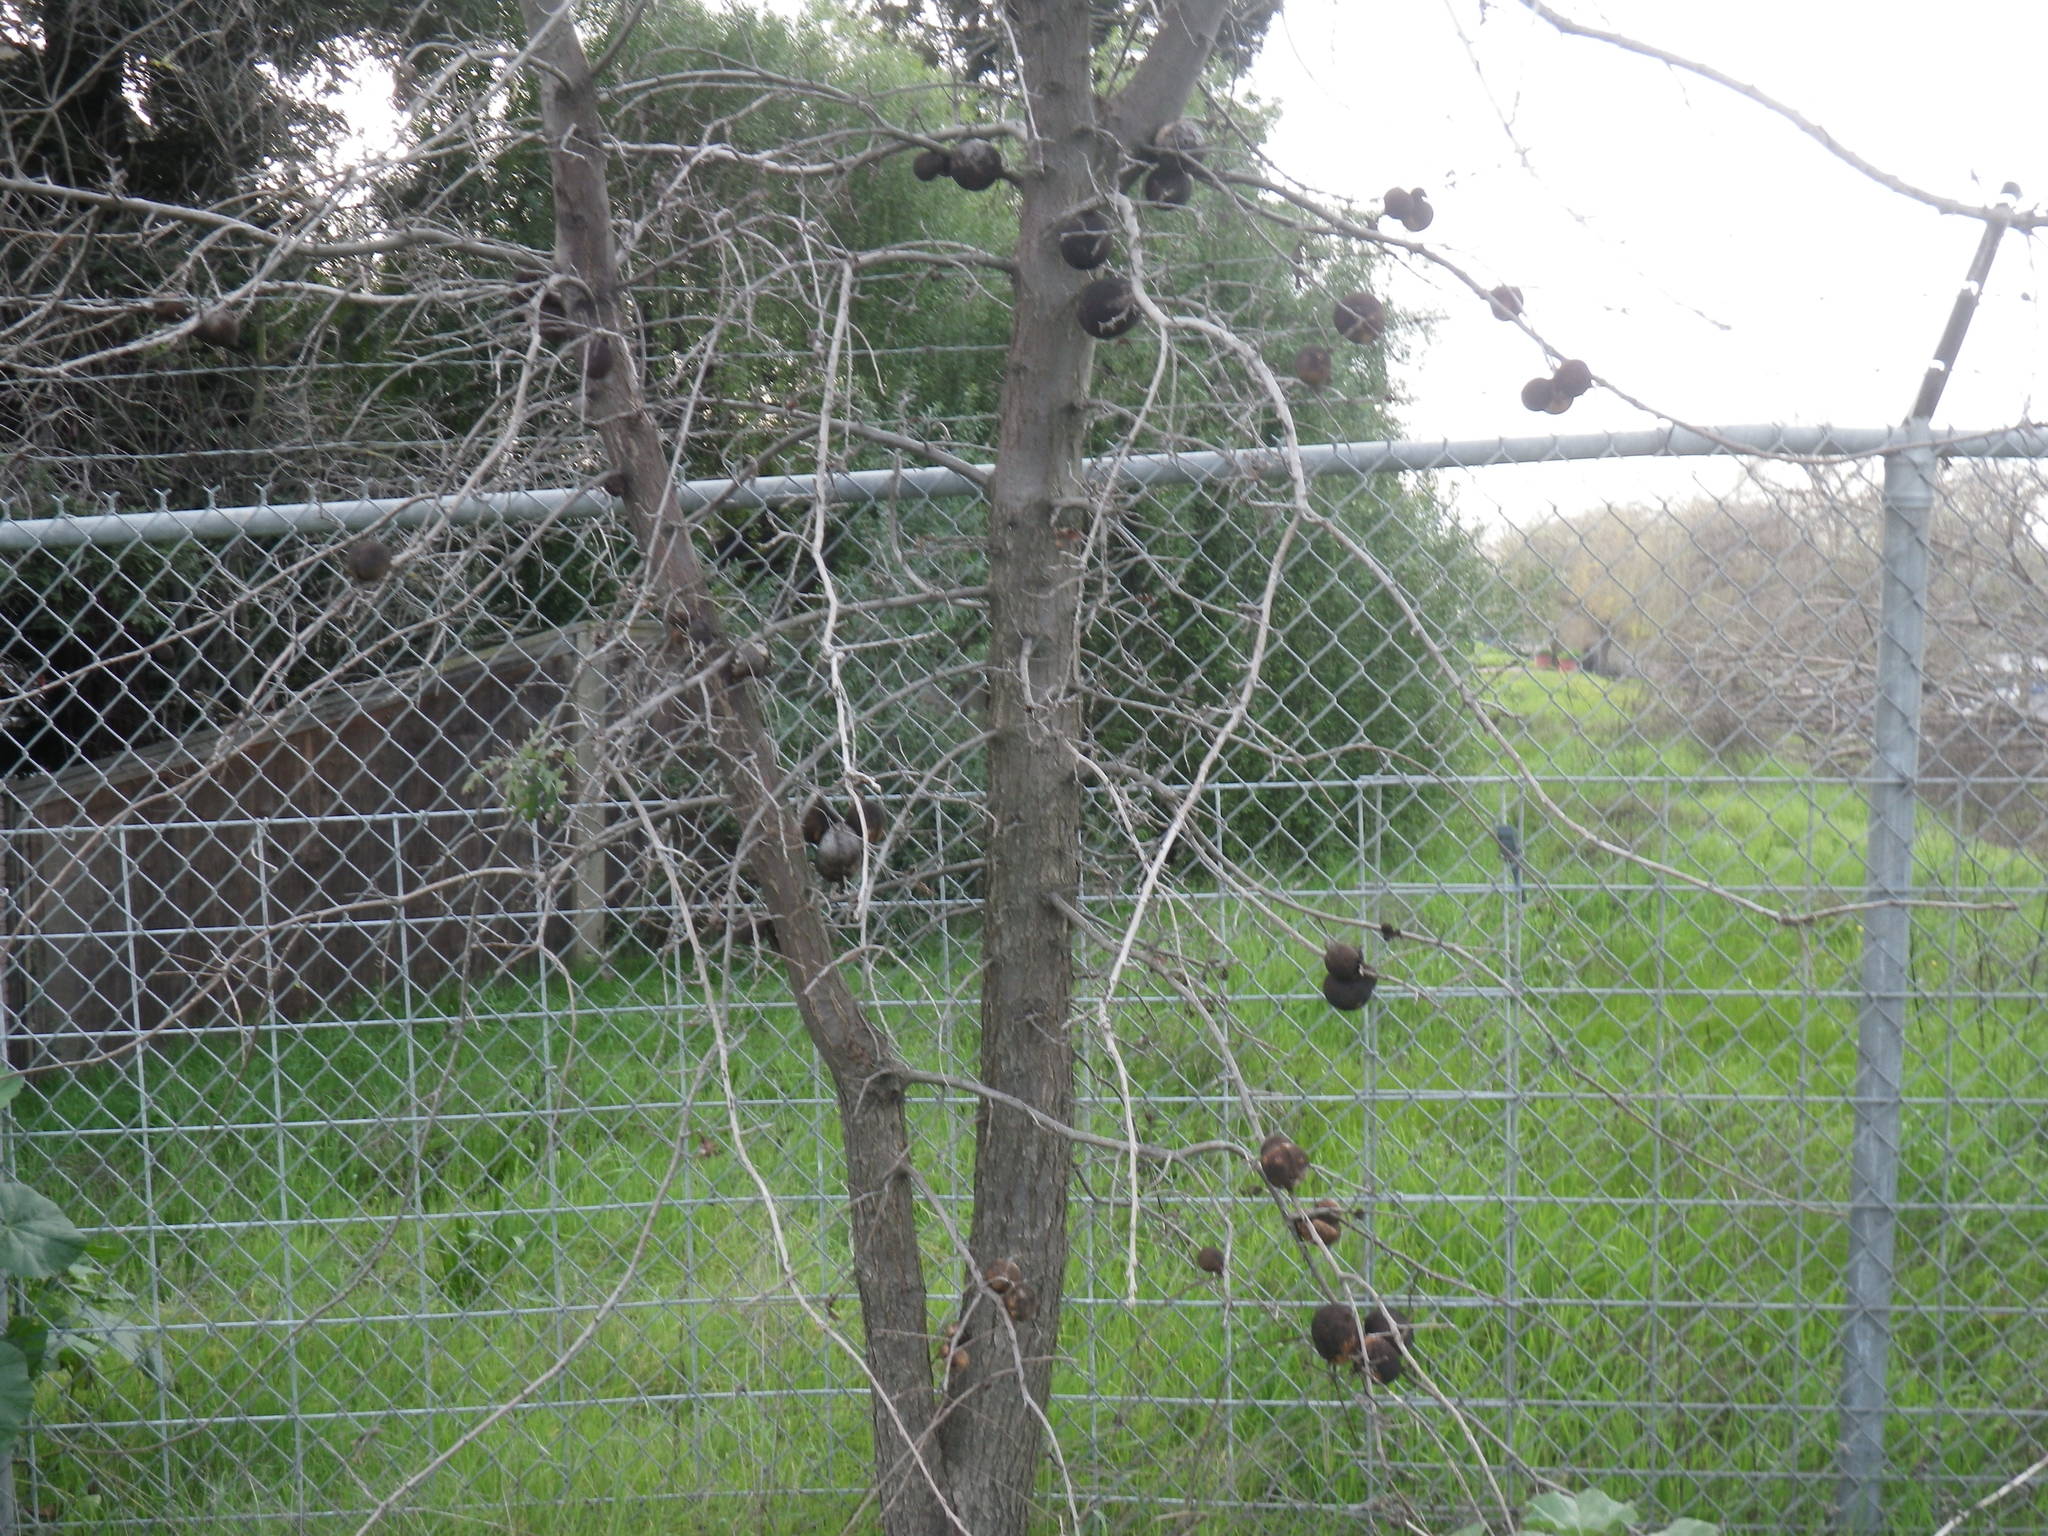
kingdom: Plantae
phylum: Tracheophyta
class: Magnoliopsida
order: Fagales
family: Fagaceae
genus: Quercus
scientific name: Quercus lobata
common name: Valley oak
